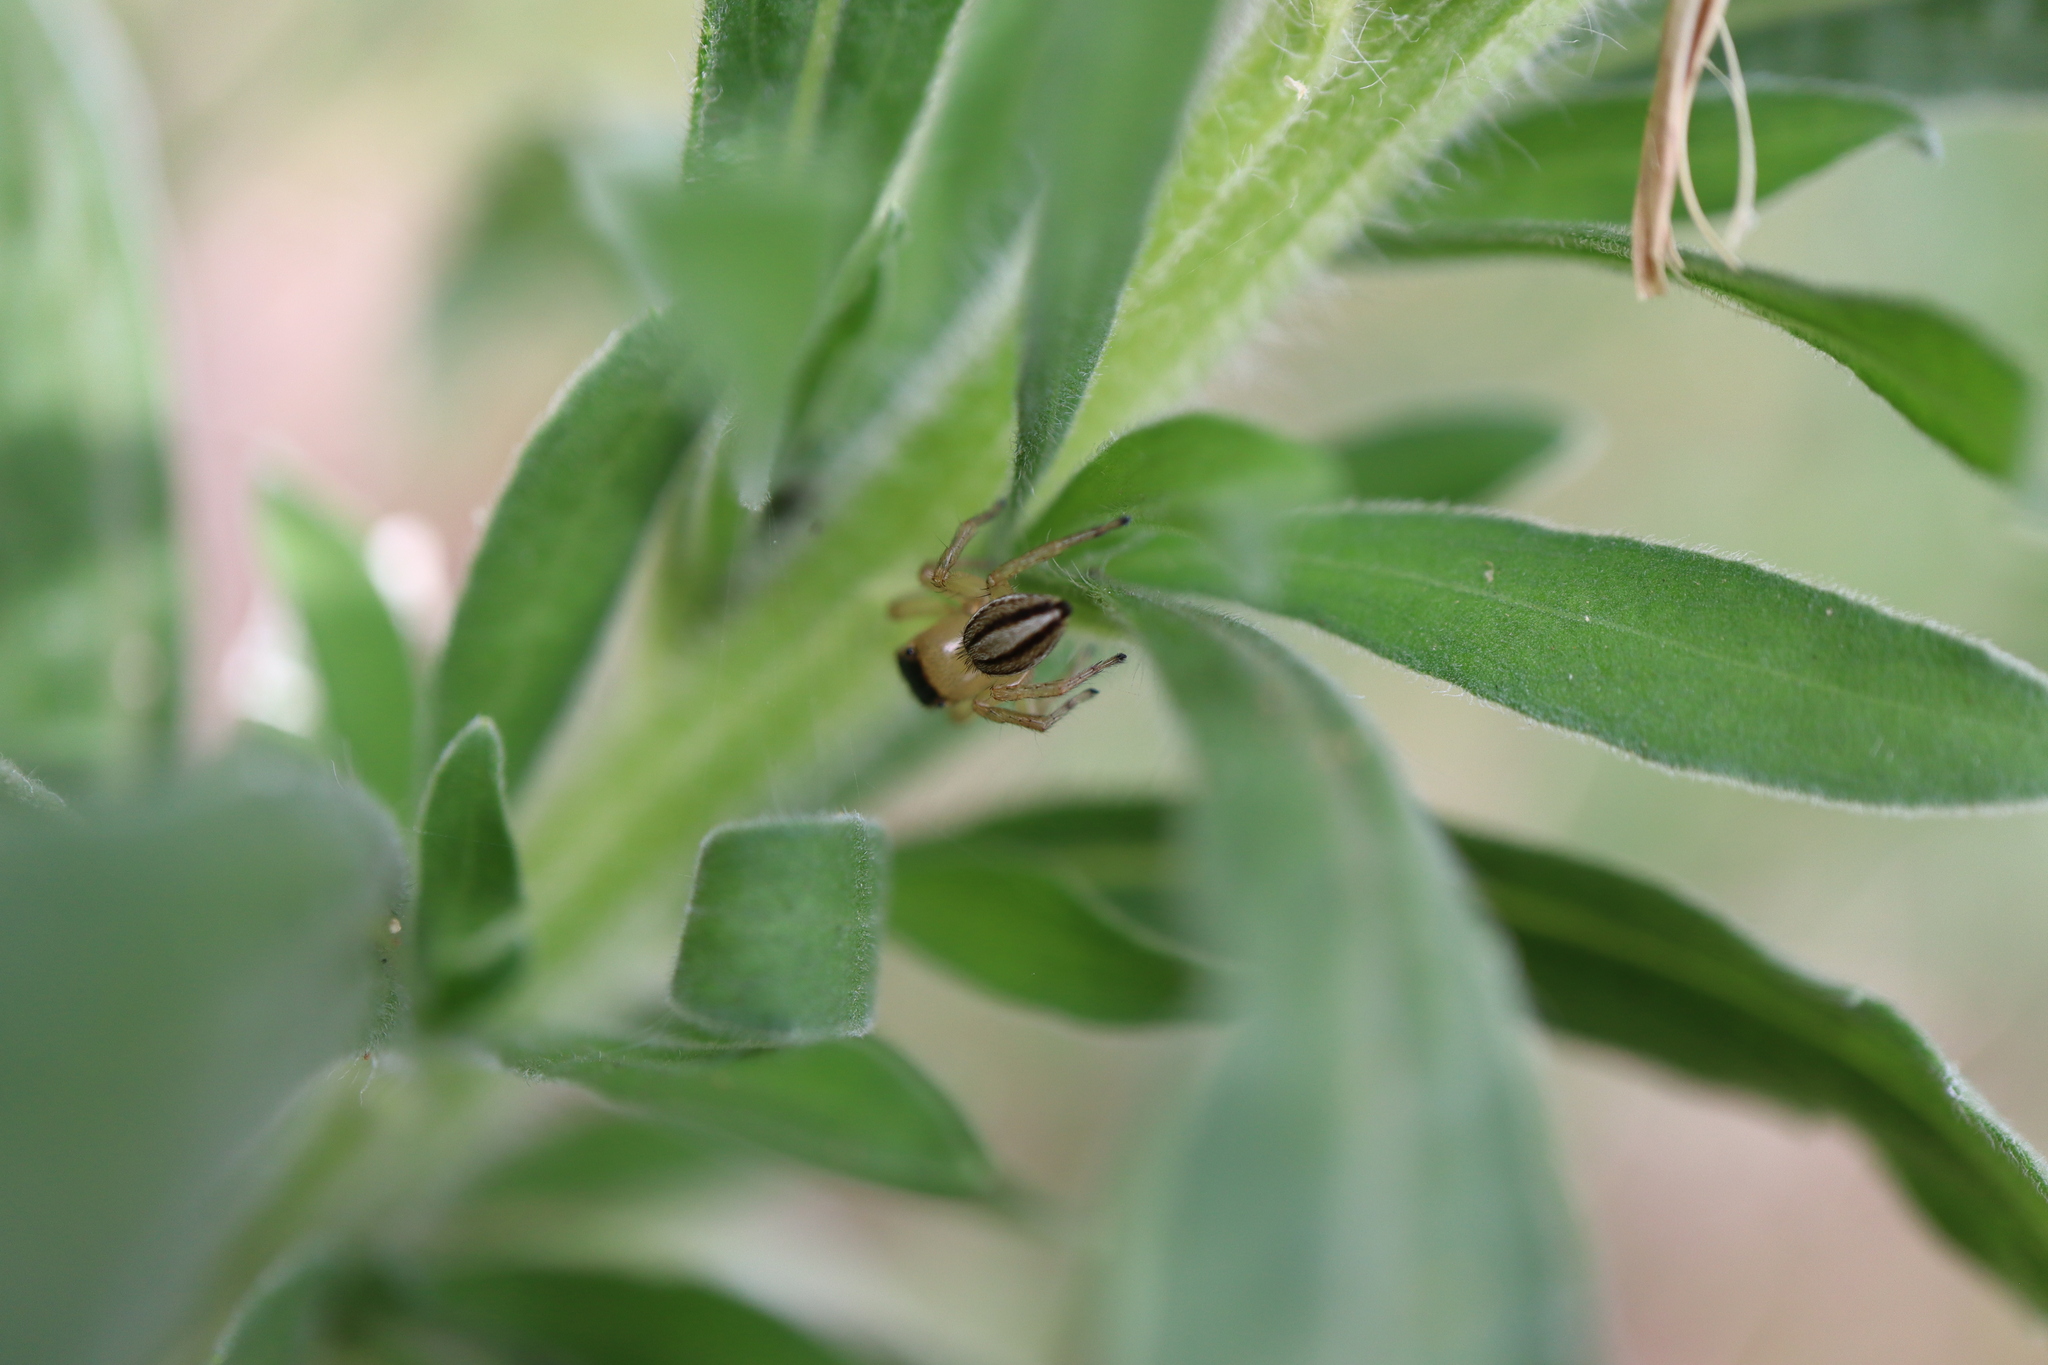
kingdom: Animalia
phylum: Arthropoda
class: Arachnida
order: Araneae
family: Salticidae
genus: Maratus
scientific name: Maratus scutulatus
